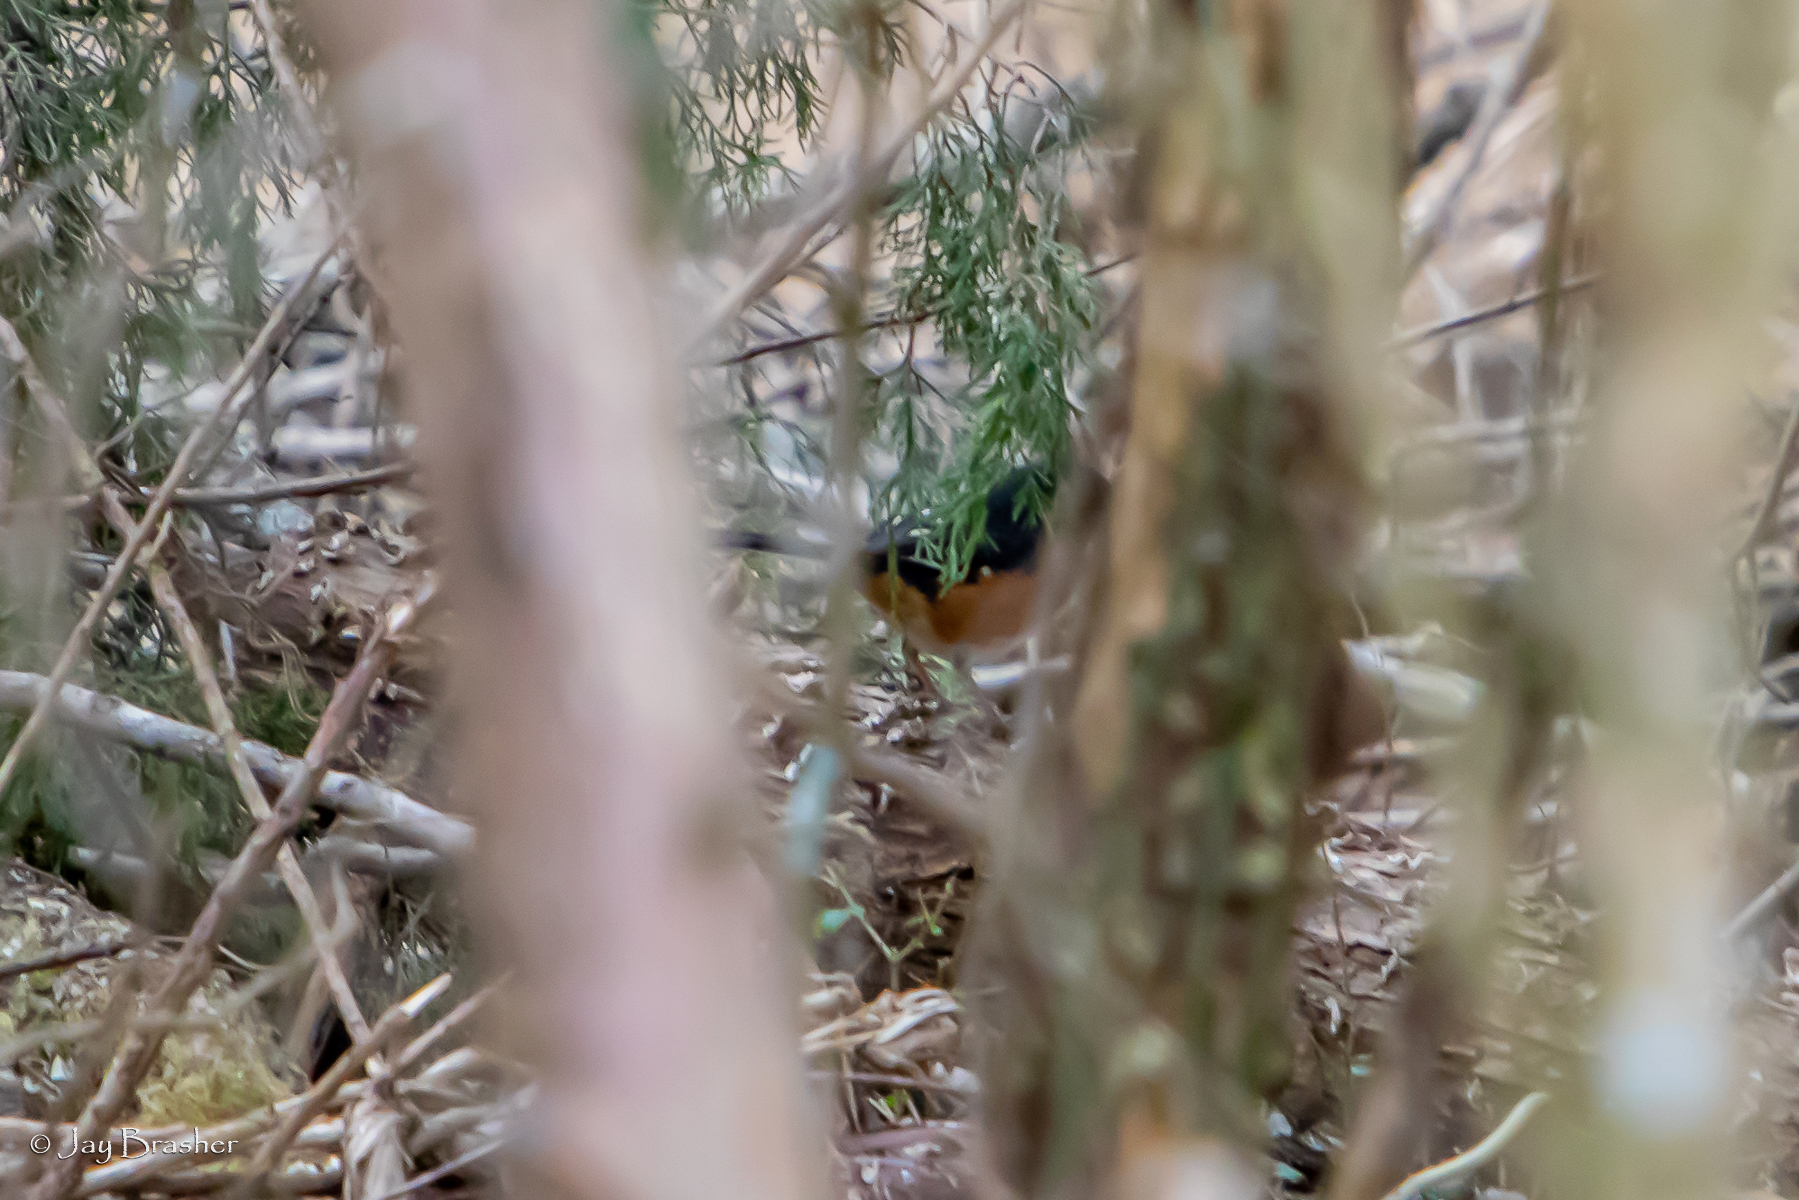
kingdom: Animalia
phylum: Chordata
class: Aves
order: Passeriformes
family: Passerellidae
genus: Pipilo
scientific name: Pipilo erythrophthalmus
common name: Eastern towhee
